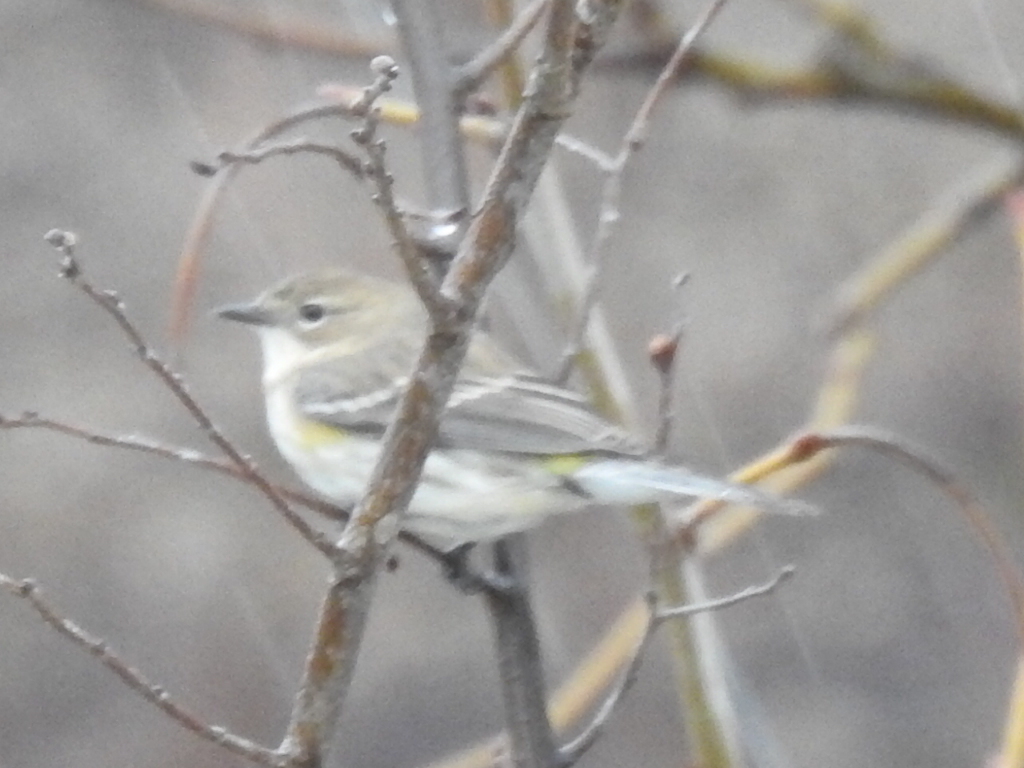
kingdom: Animalia
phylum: Chordata
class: Aves
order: Passeriformes
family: Parulidae
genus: Setophaga
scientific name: Setophaga coronata
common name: Myrtle warbler
